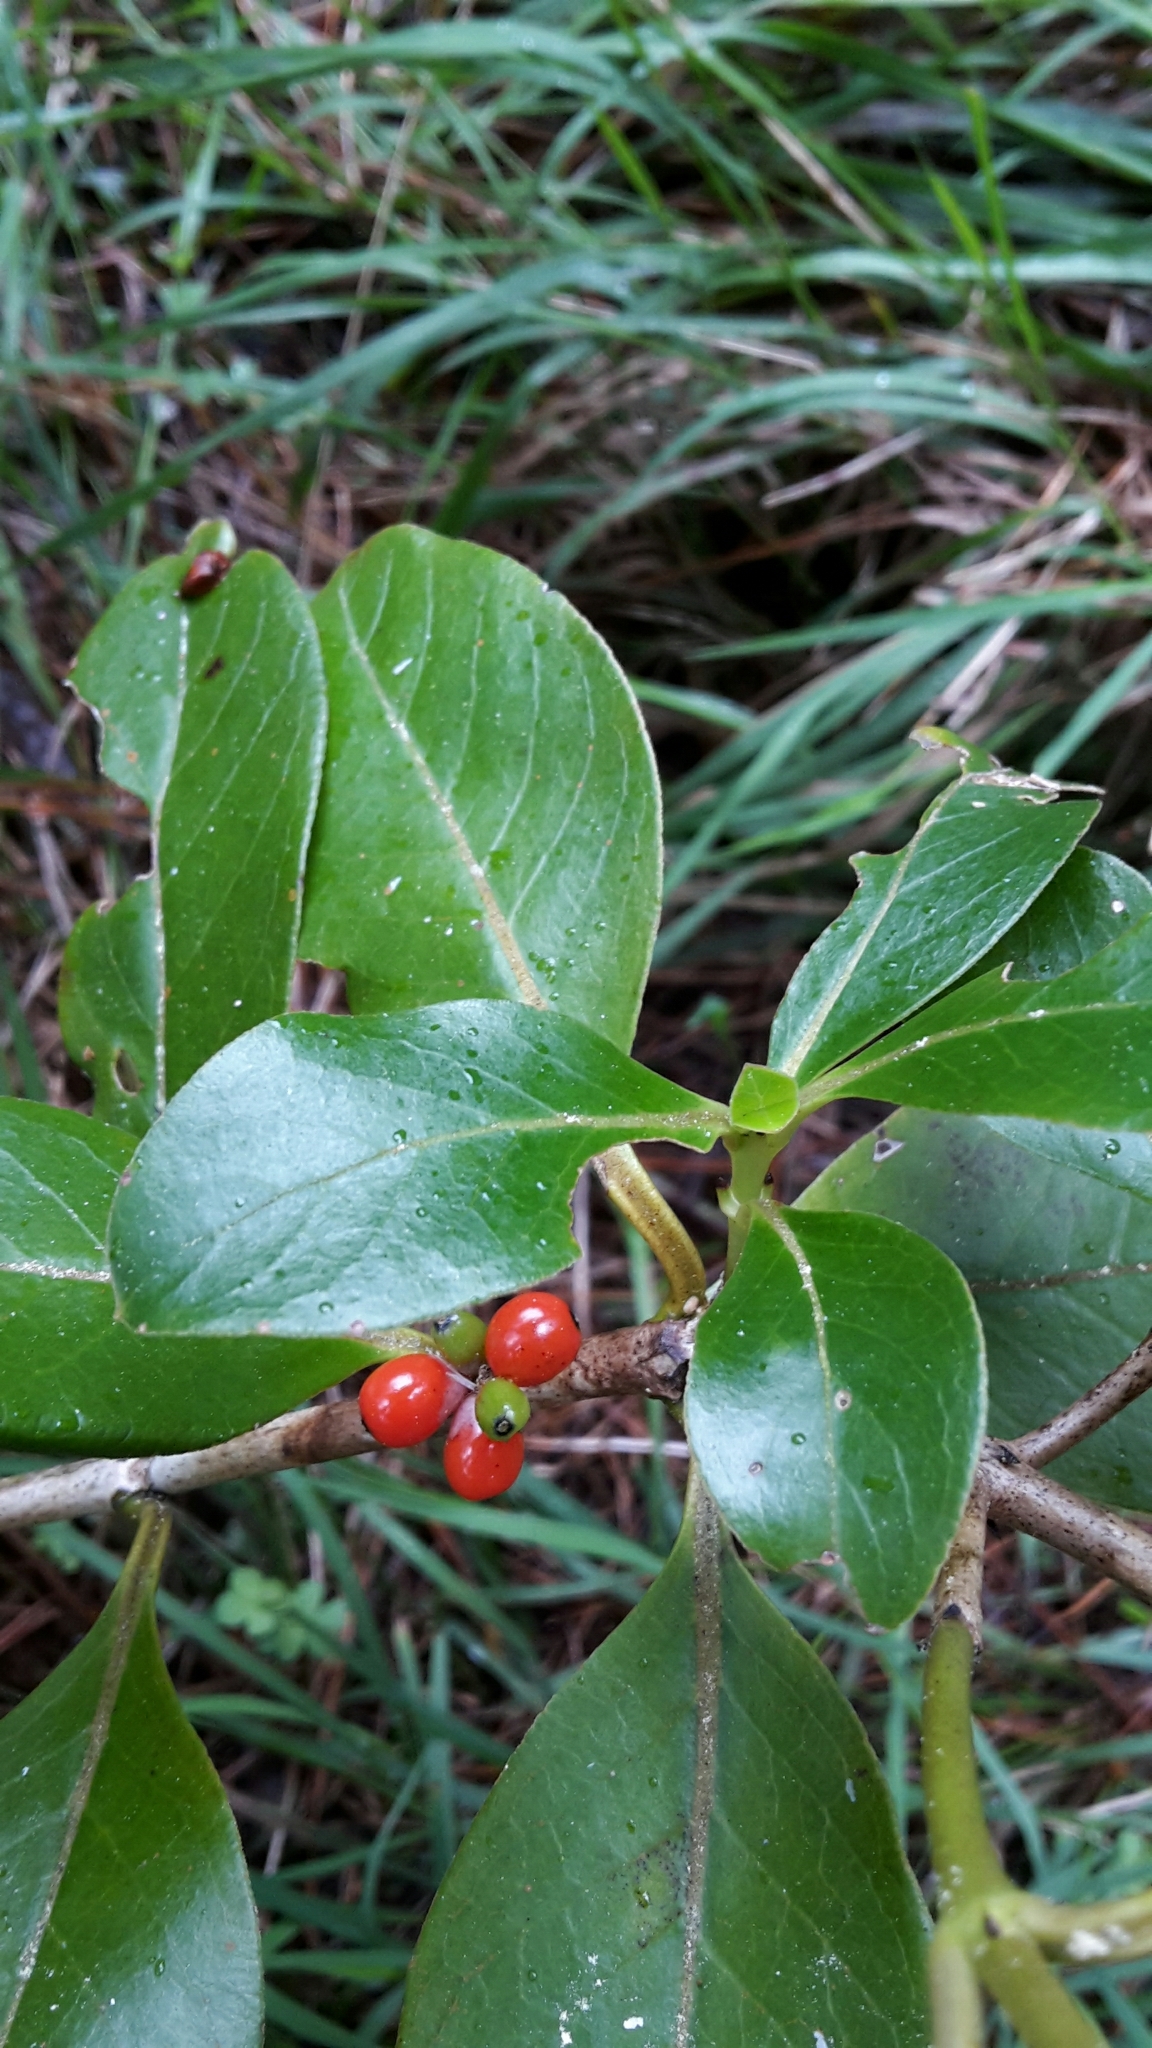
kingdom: Plantae
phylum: Tracheophyta
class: Magnoliopsida
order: Gentianales
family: Rubiaceae
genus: Coprosma
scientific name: Coprosma robusta
